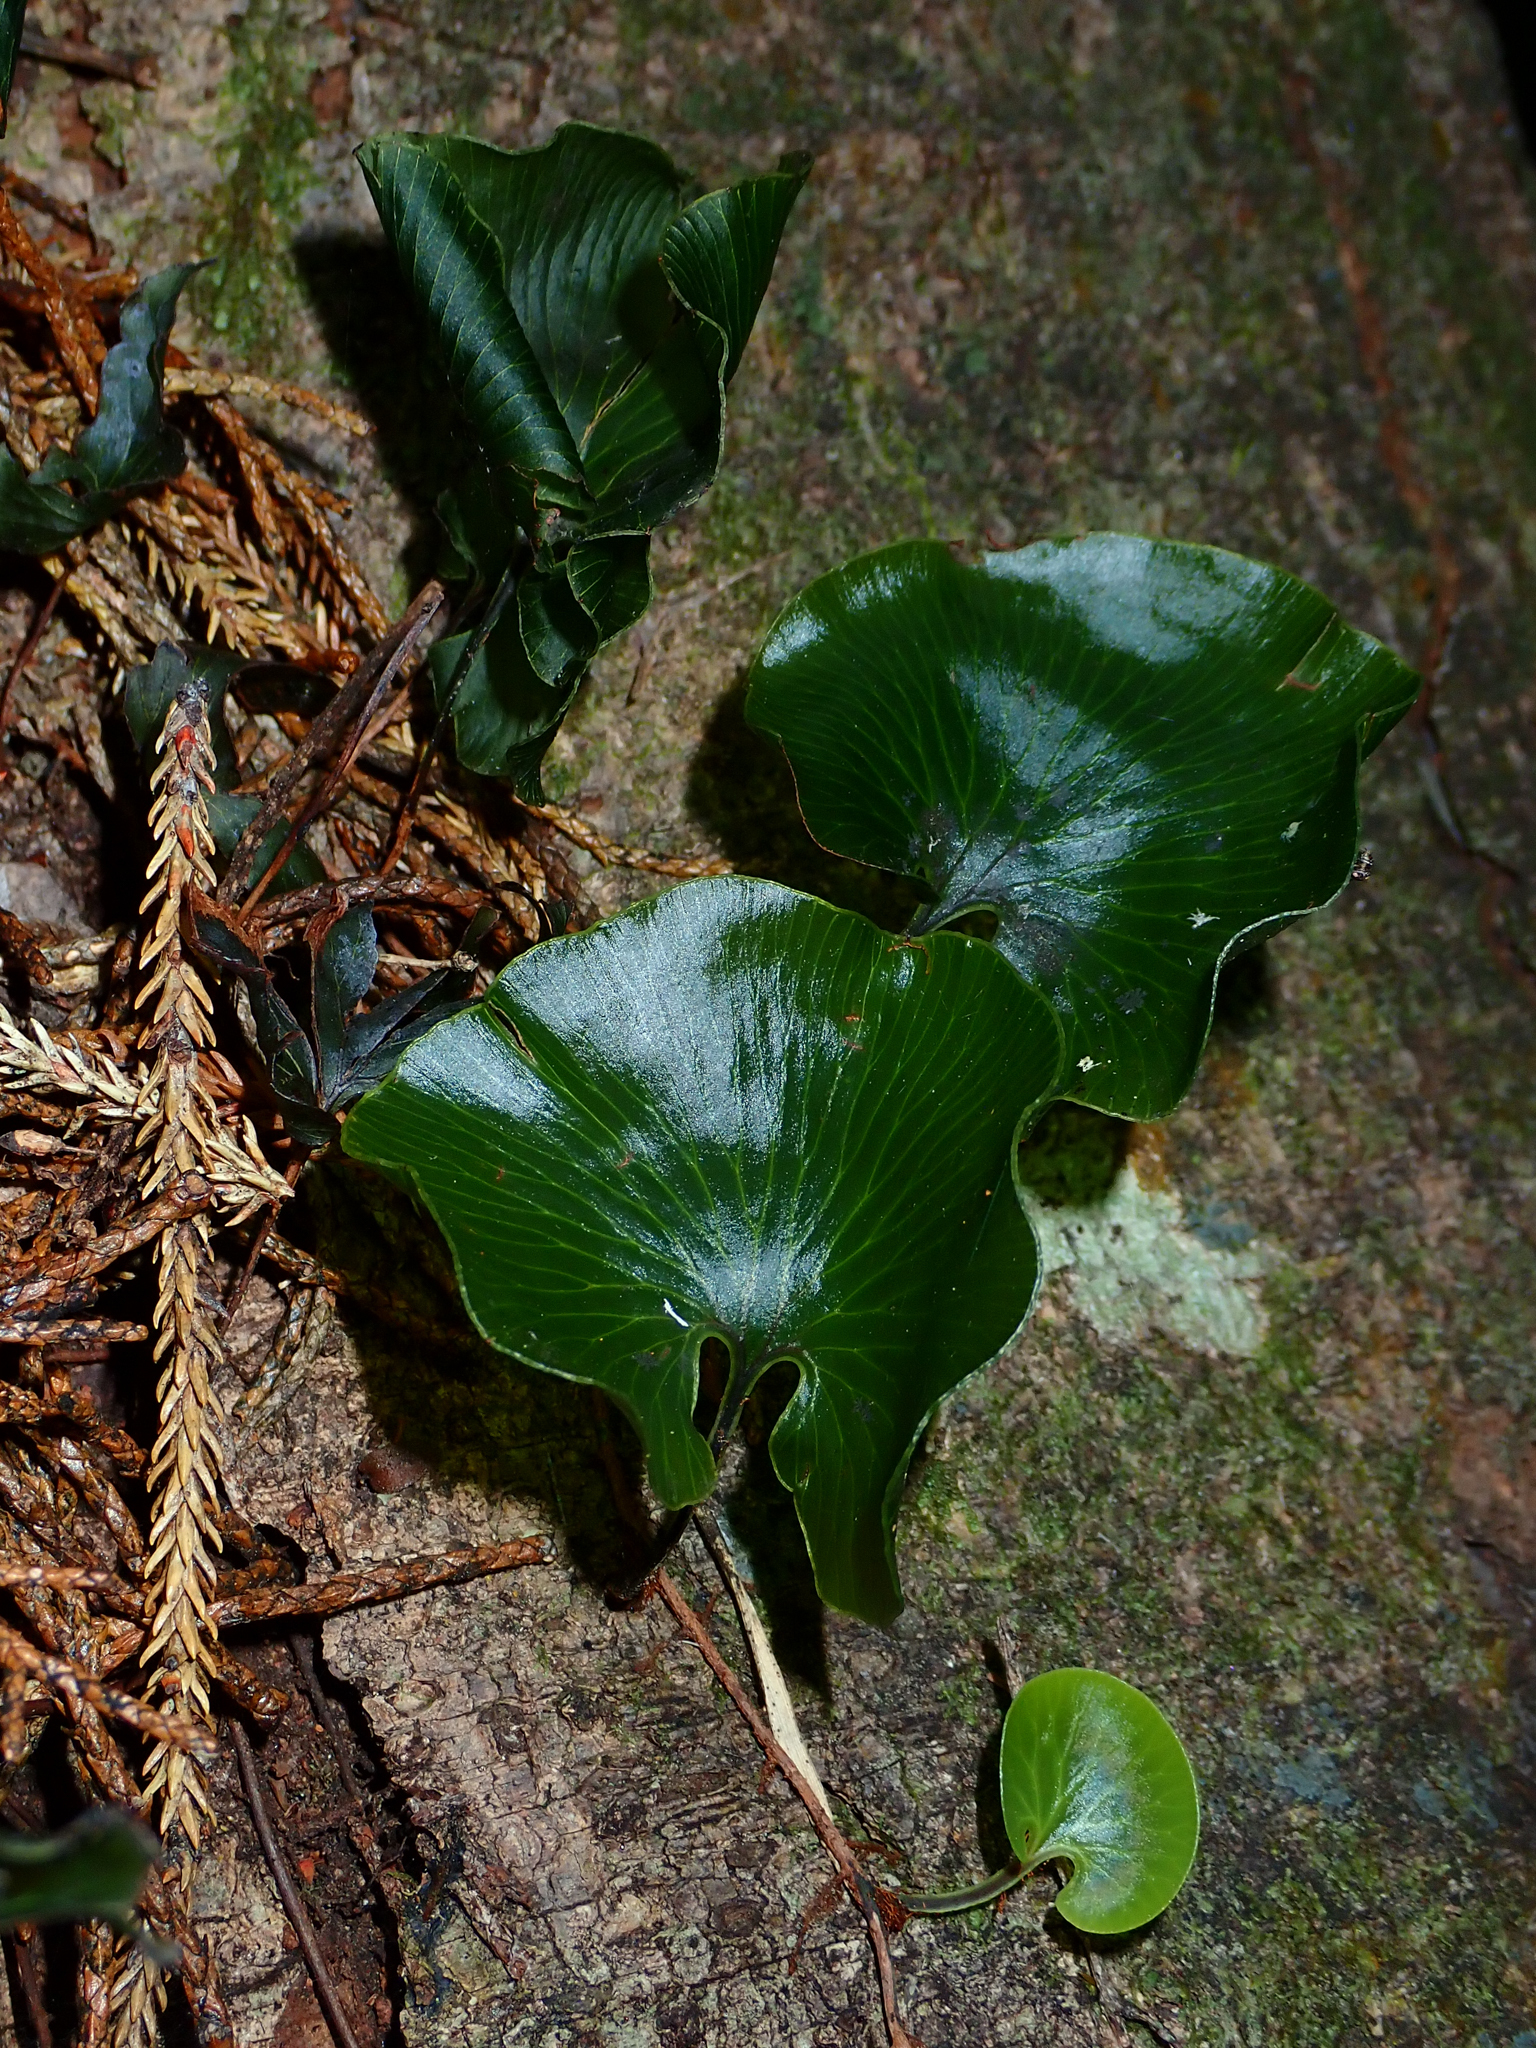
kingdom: Plantae
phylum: Tracheophyta
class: Polypodiopsida
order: Hymenophyllales
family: Hymenophyllaceae
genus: Hymenophyllum
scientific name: Hymenophyllum nephrophyllum
